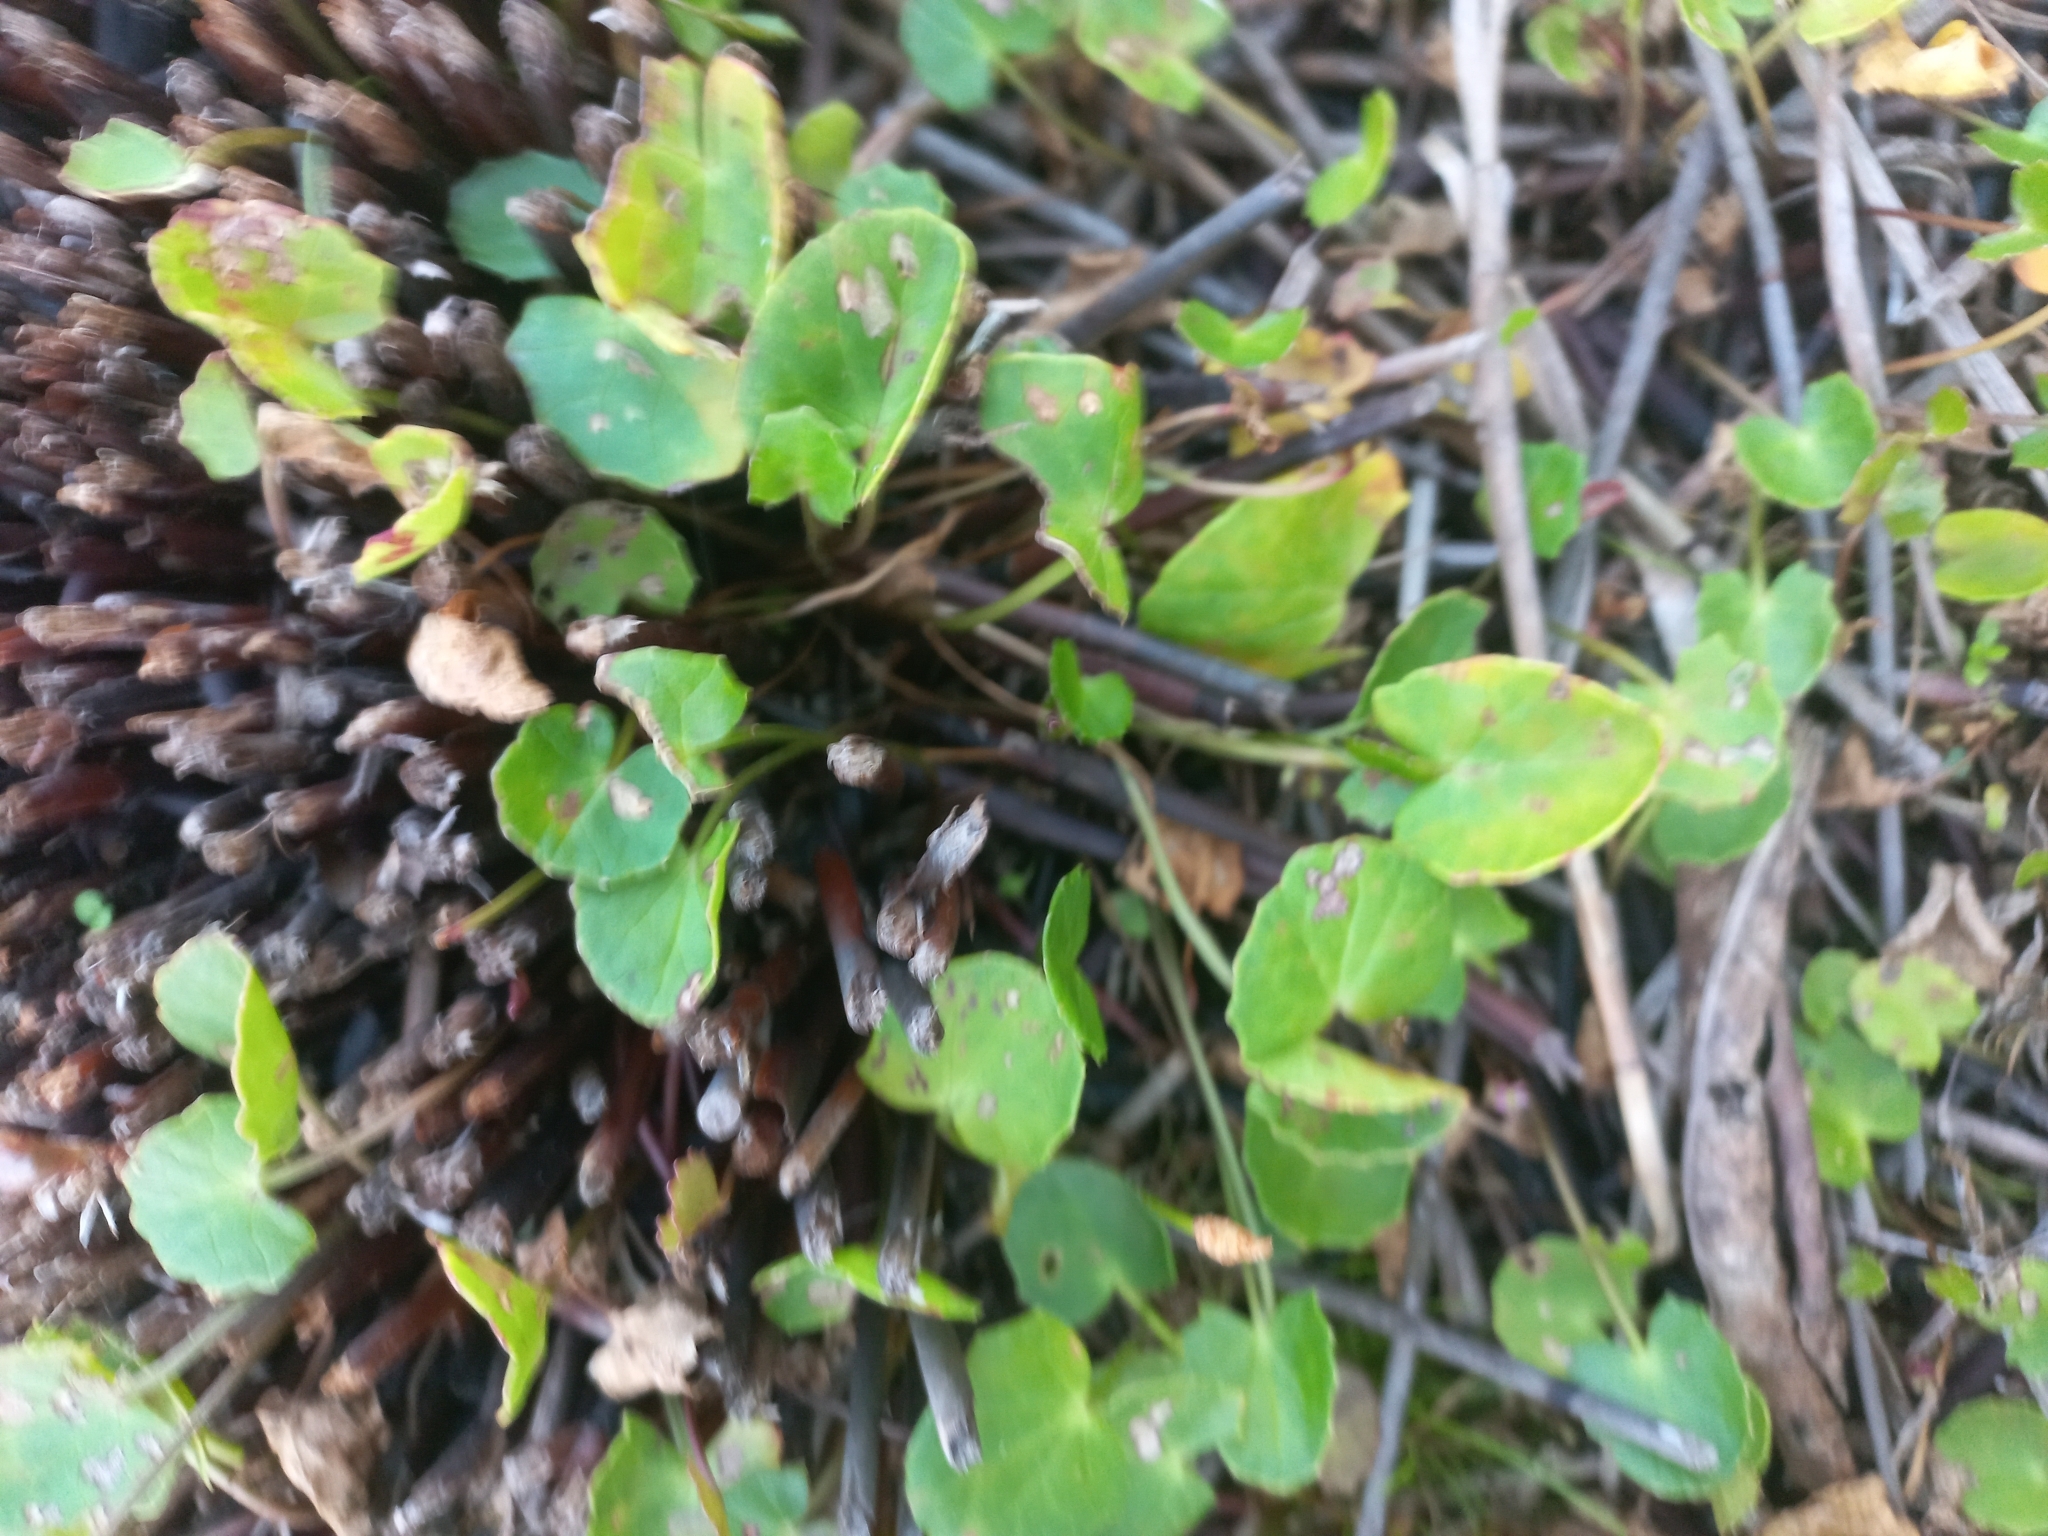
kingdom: Plantae
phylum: Tracheophyta
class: Magnoliopsida
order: Apiales
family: Apiaceae
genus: Centella
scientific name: Centella asiatica
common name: Spadeleaf
